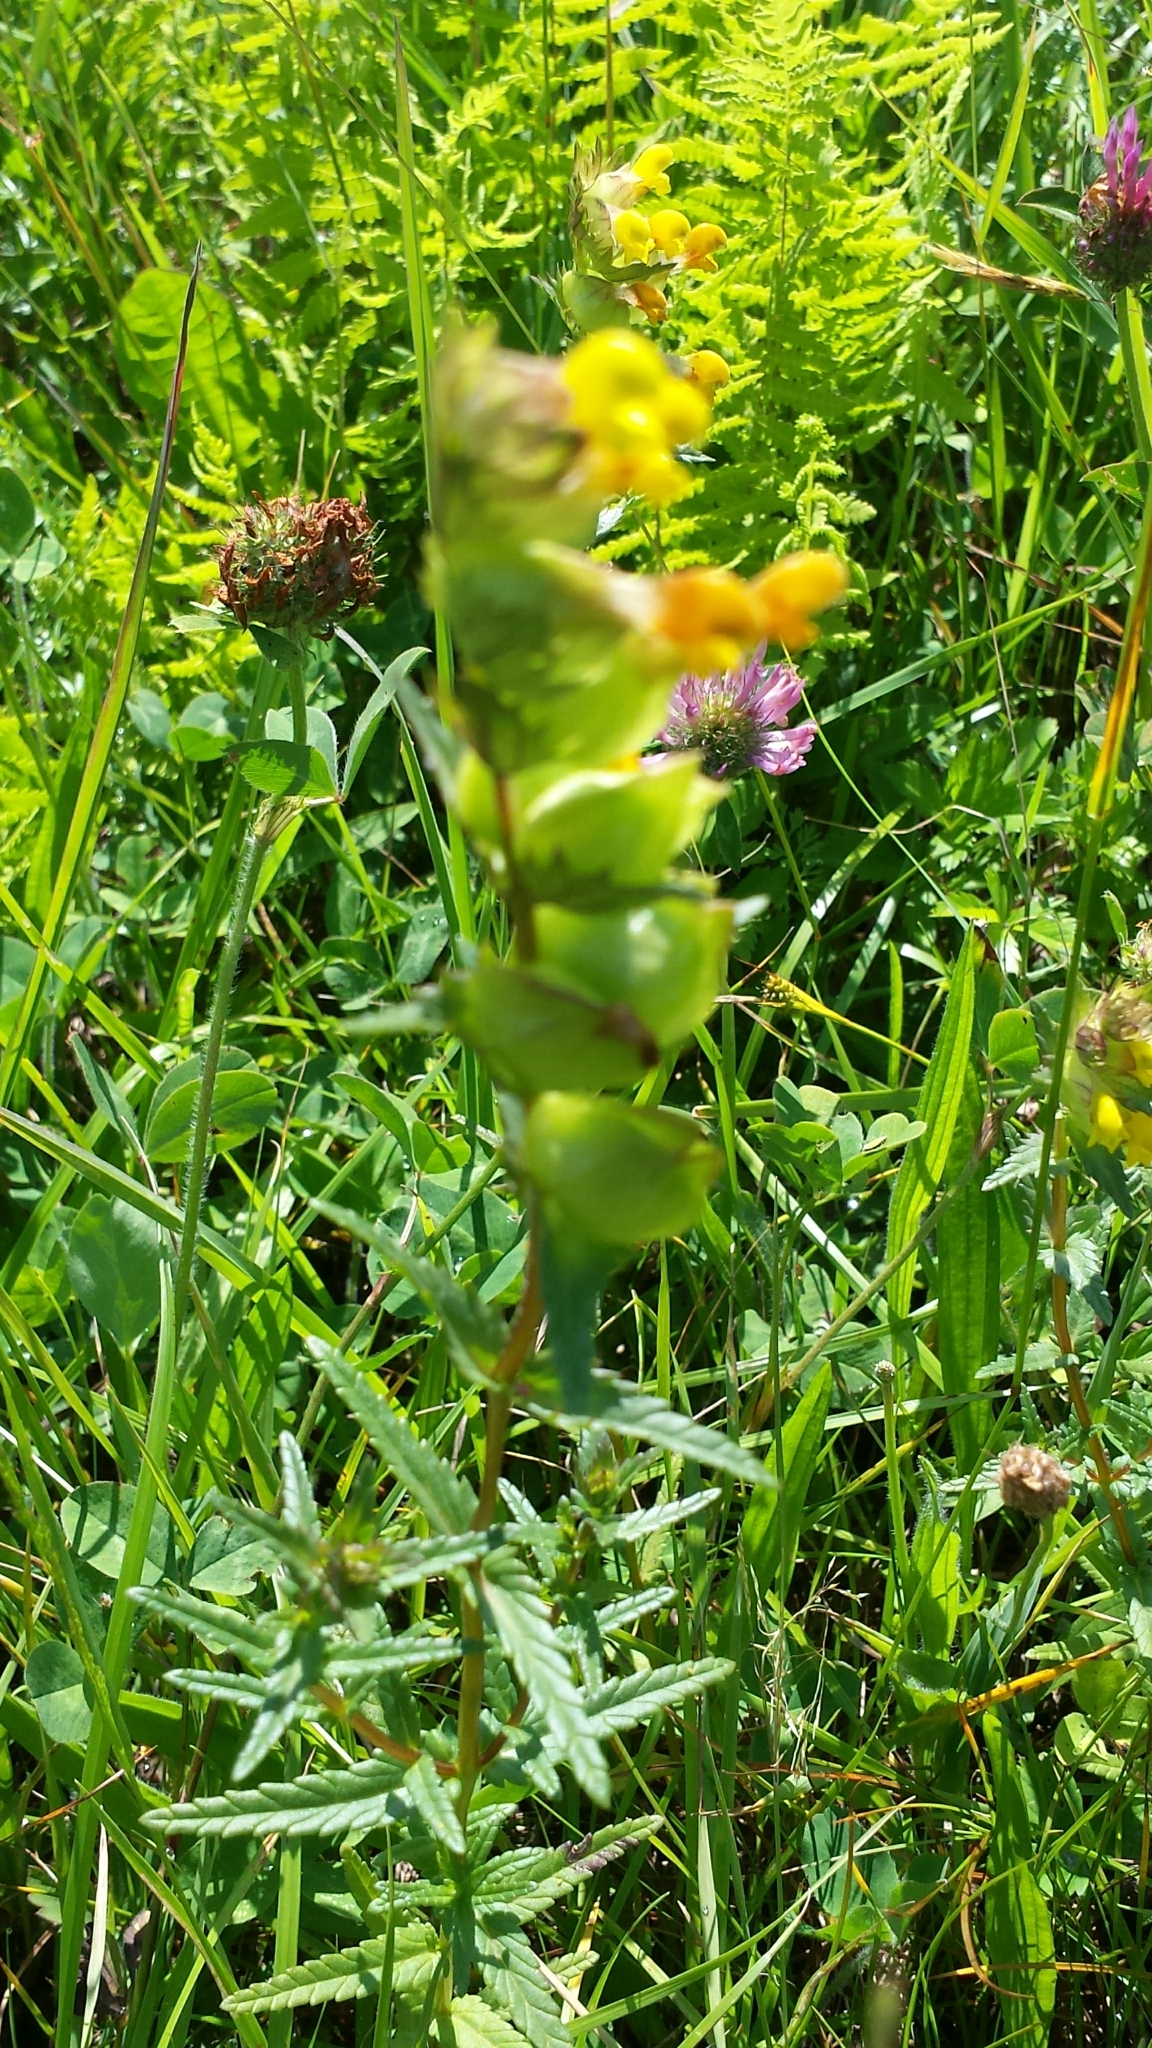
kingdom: Plantae
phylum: Tracheophyta
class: Magnoliopsida
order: Lamiales
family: Orobanchaceae
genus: Rhinanthus
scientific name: Rhinanthus minor
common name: Yellow-rattle
